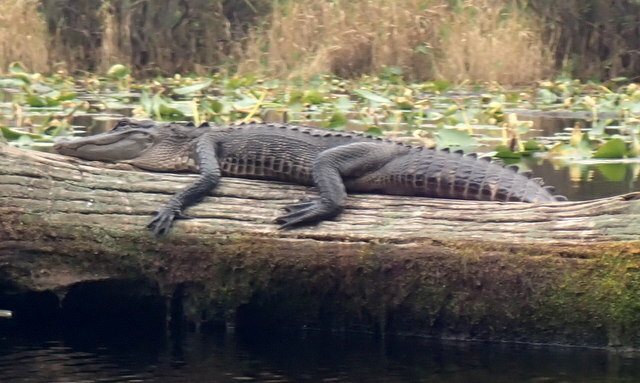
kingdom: Animalia
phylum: Chordata
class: Crocodylia
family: Alligatoridae
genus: Alligator
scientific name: Alligator mississippiensis
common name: American alligator
